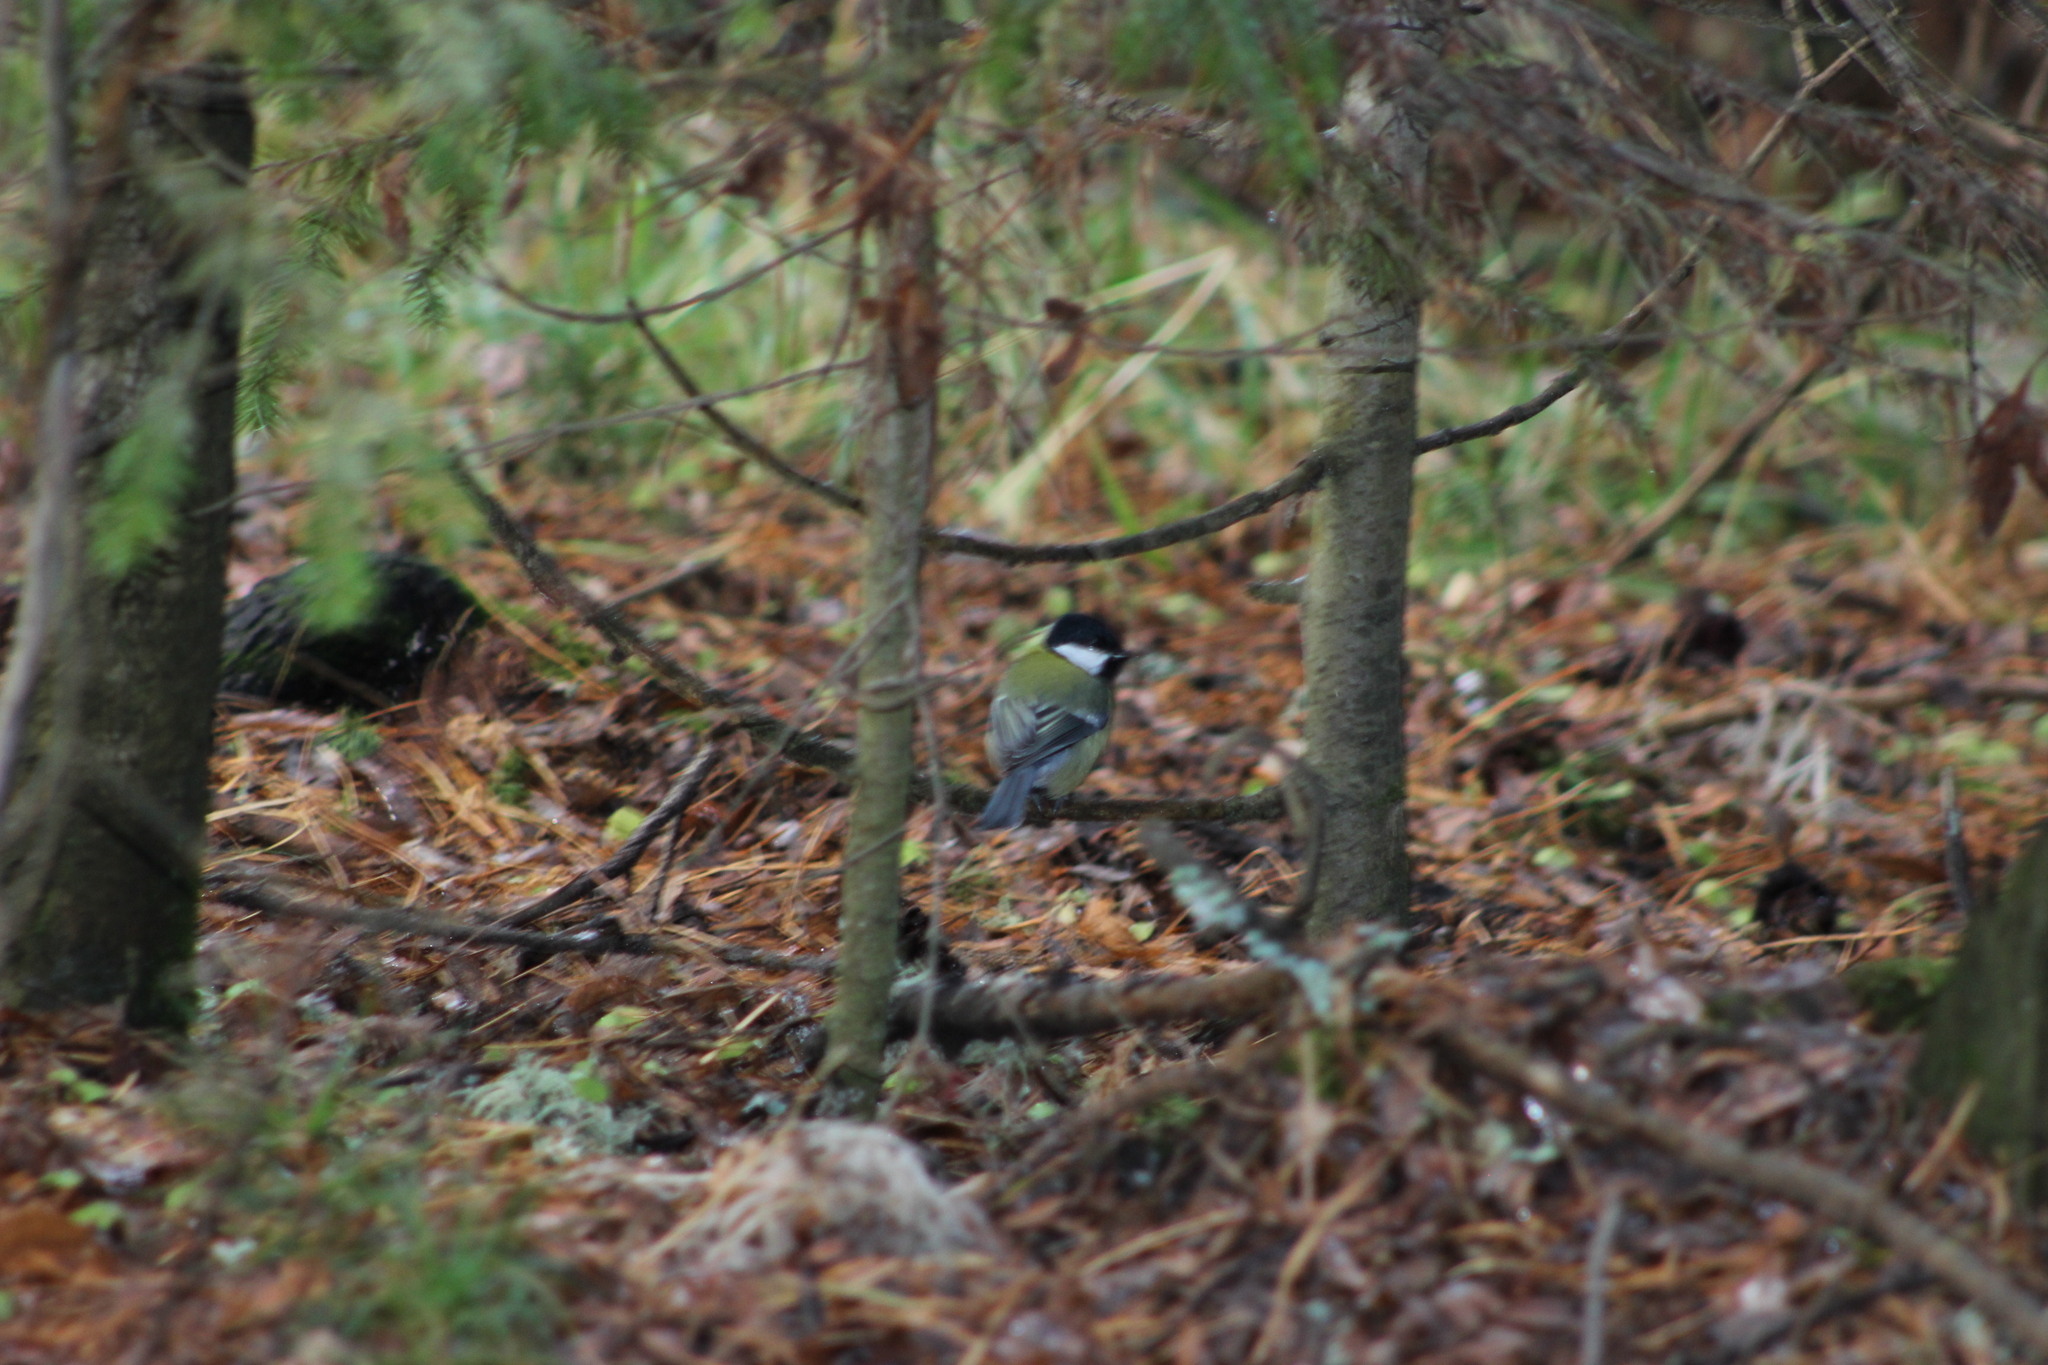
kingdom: Animalia
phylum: Chordata
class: Aves
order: Passeriformes
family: Paridae
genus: Parus
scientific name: Parus major
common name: Great tit
